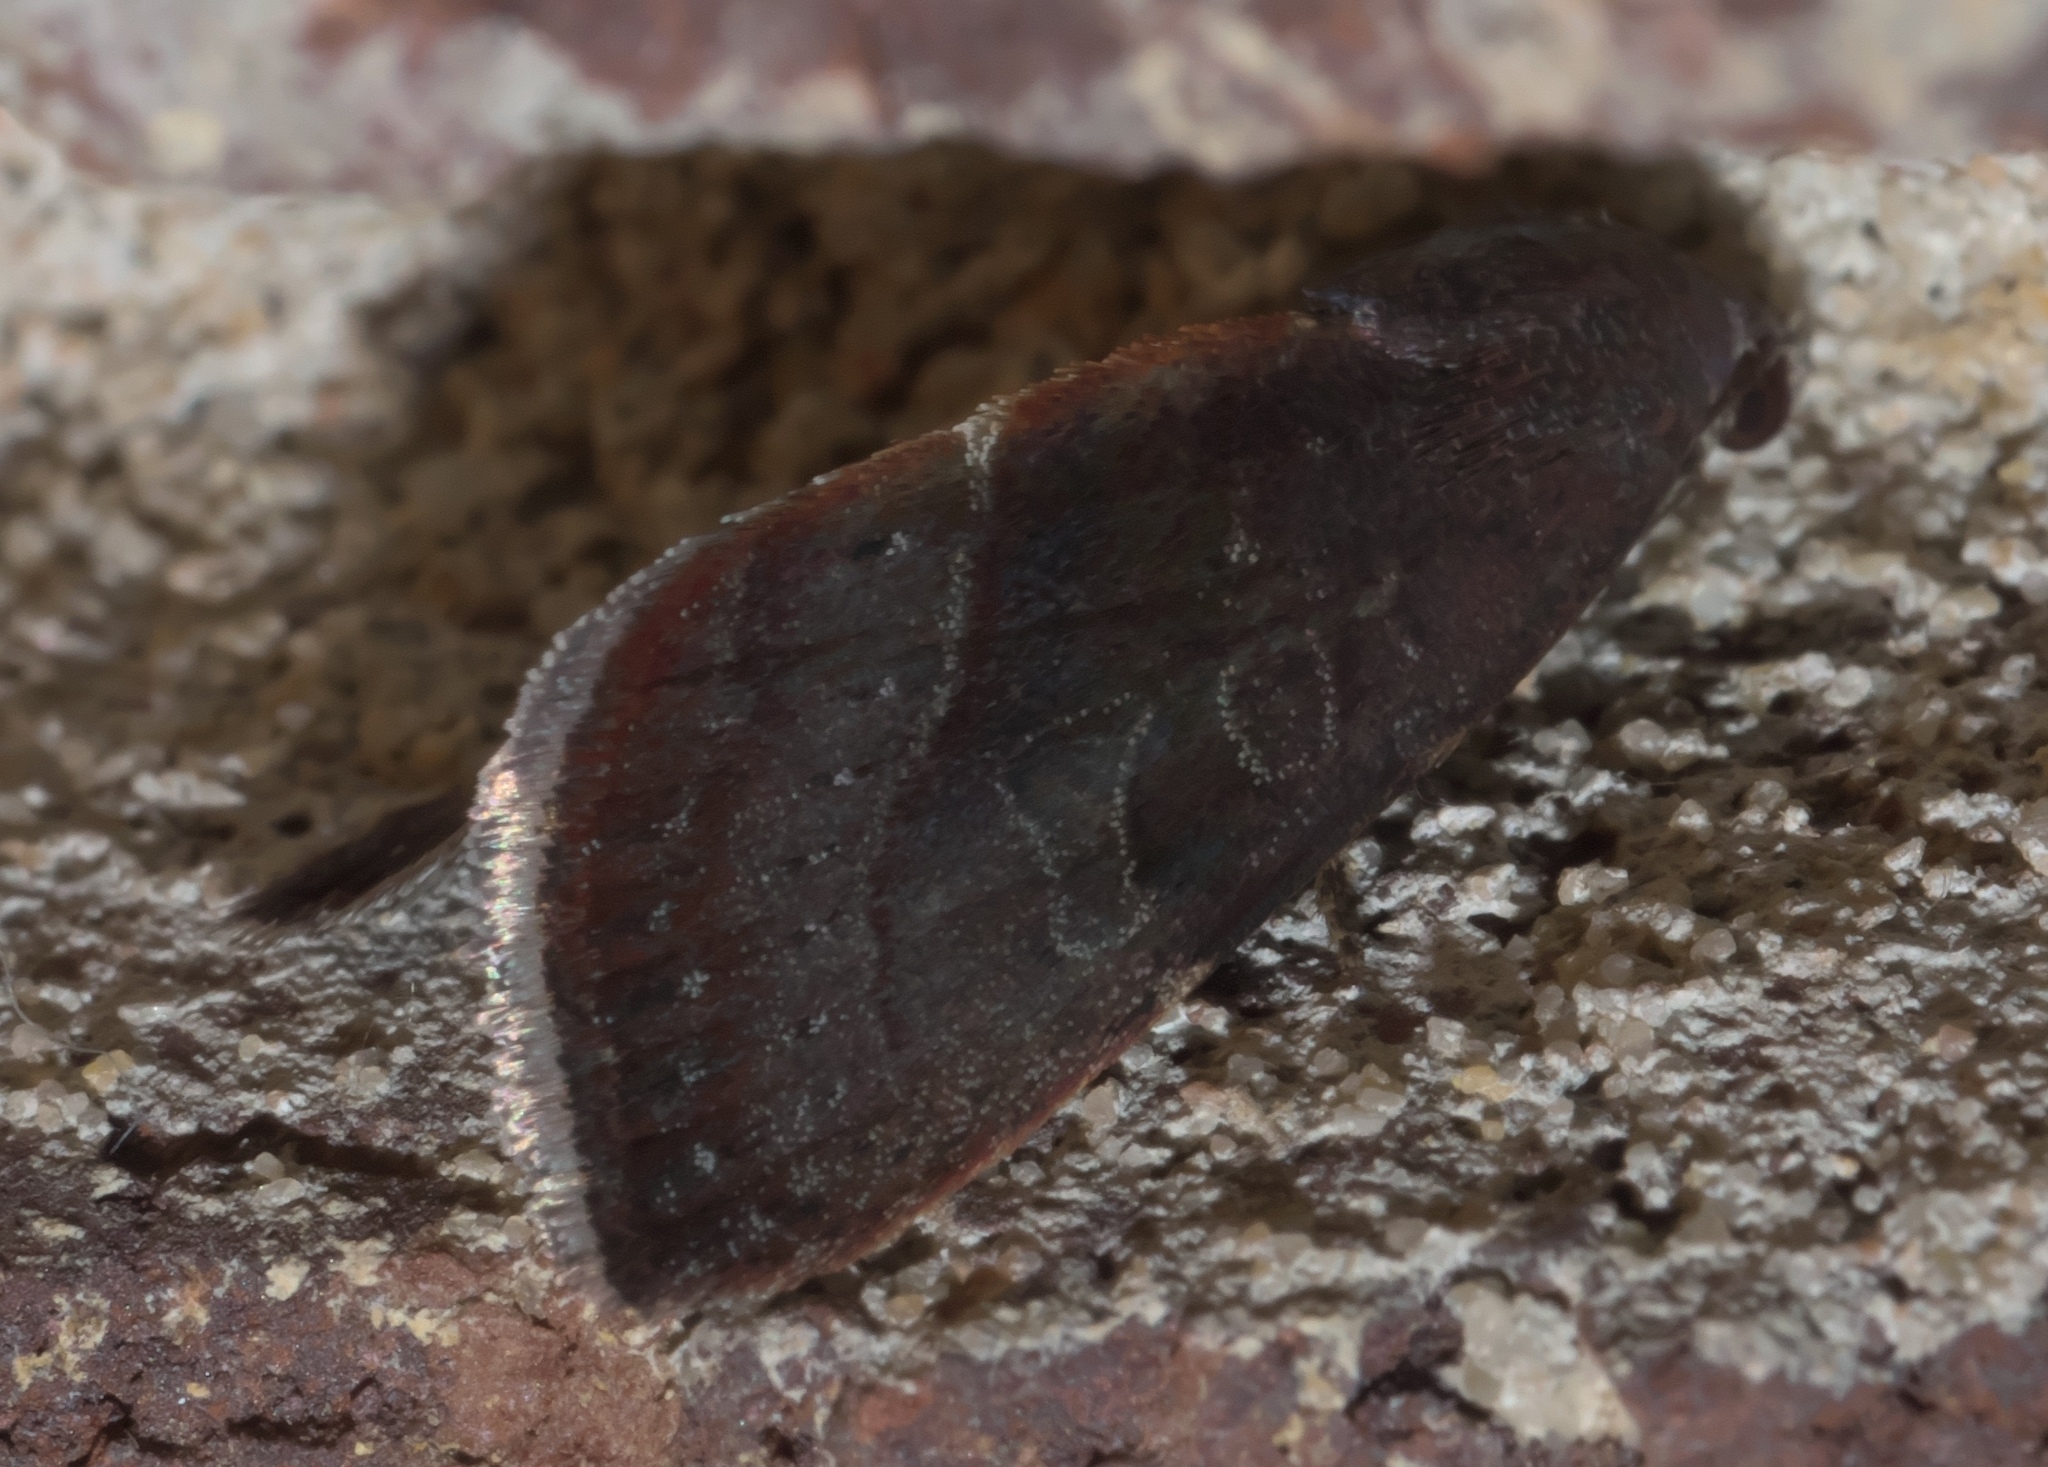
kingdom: Animalia
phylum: Arthropoda
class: Insecta
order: Lepidoptera
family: Noctuidae
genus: Galgula
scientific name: Galgula partita
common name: Wedgeling
